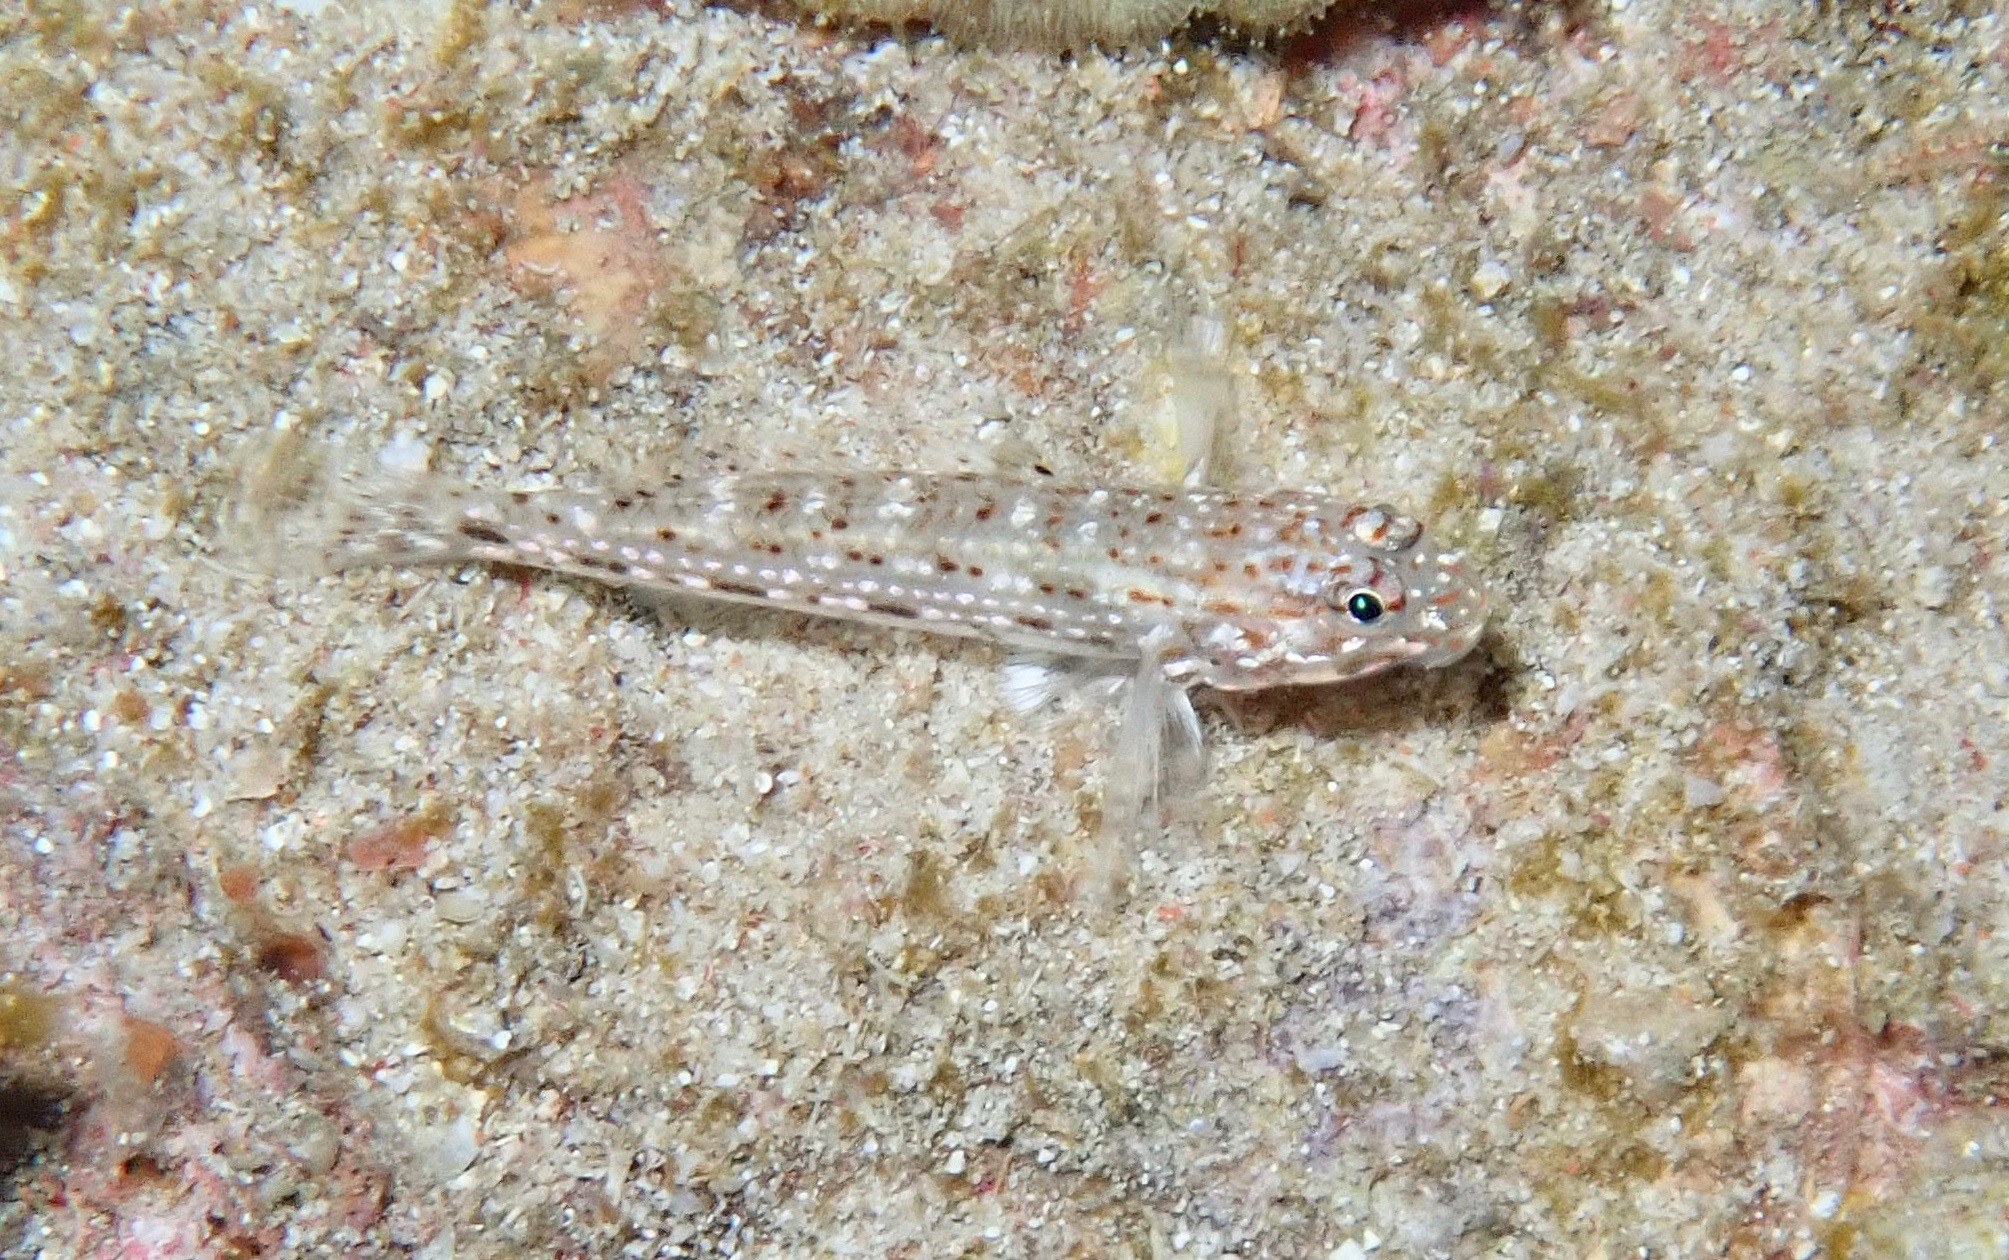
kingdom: Animalia
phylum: Chordata
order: Perciformes
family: Gobiidae
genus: Istigobius
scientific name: Istigobius decoratus
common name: Decorated goby
